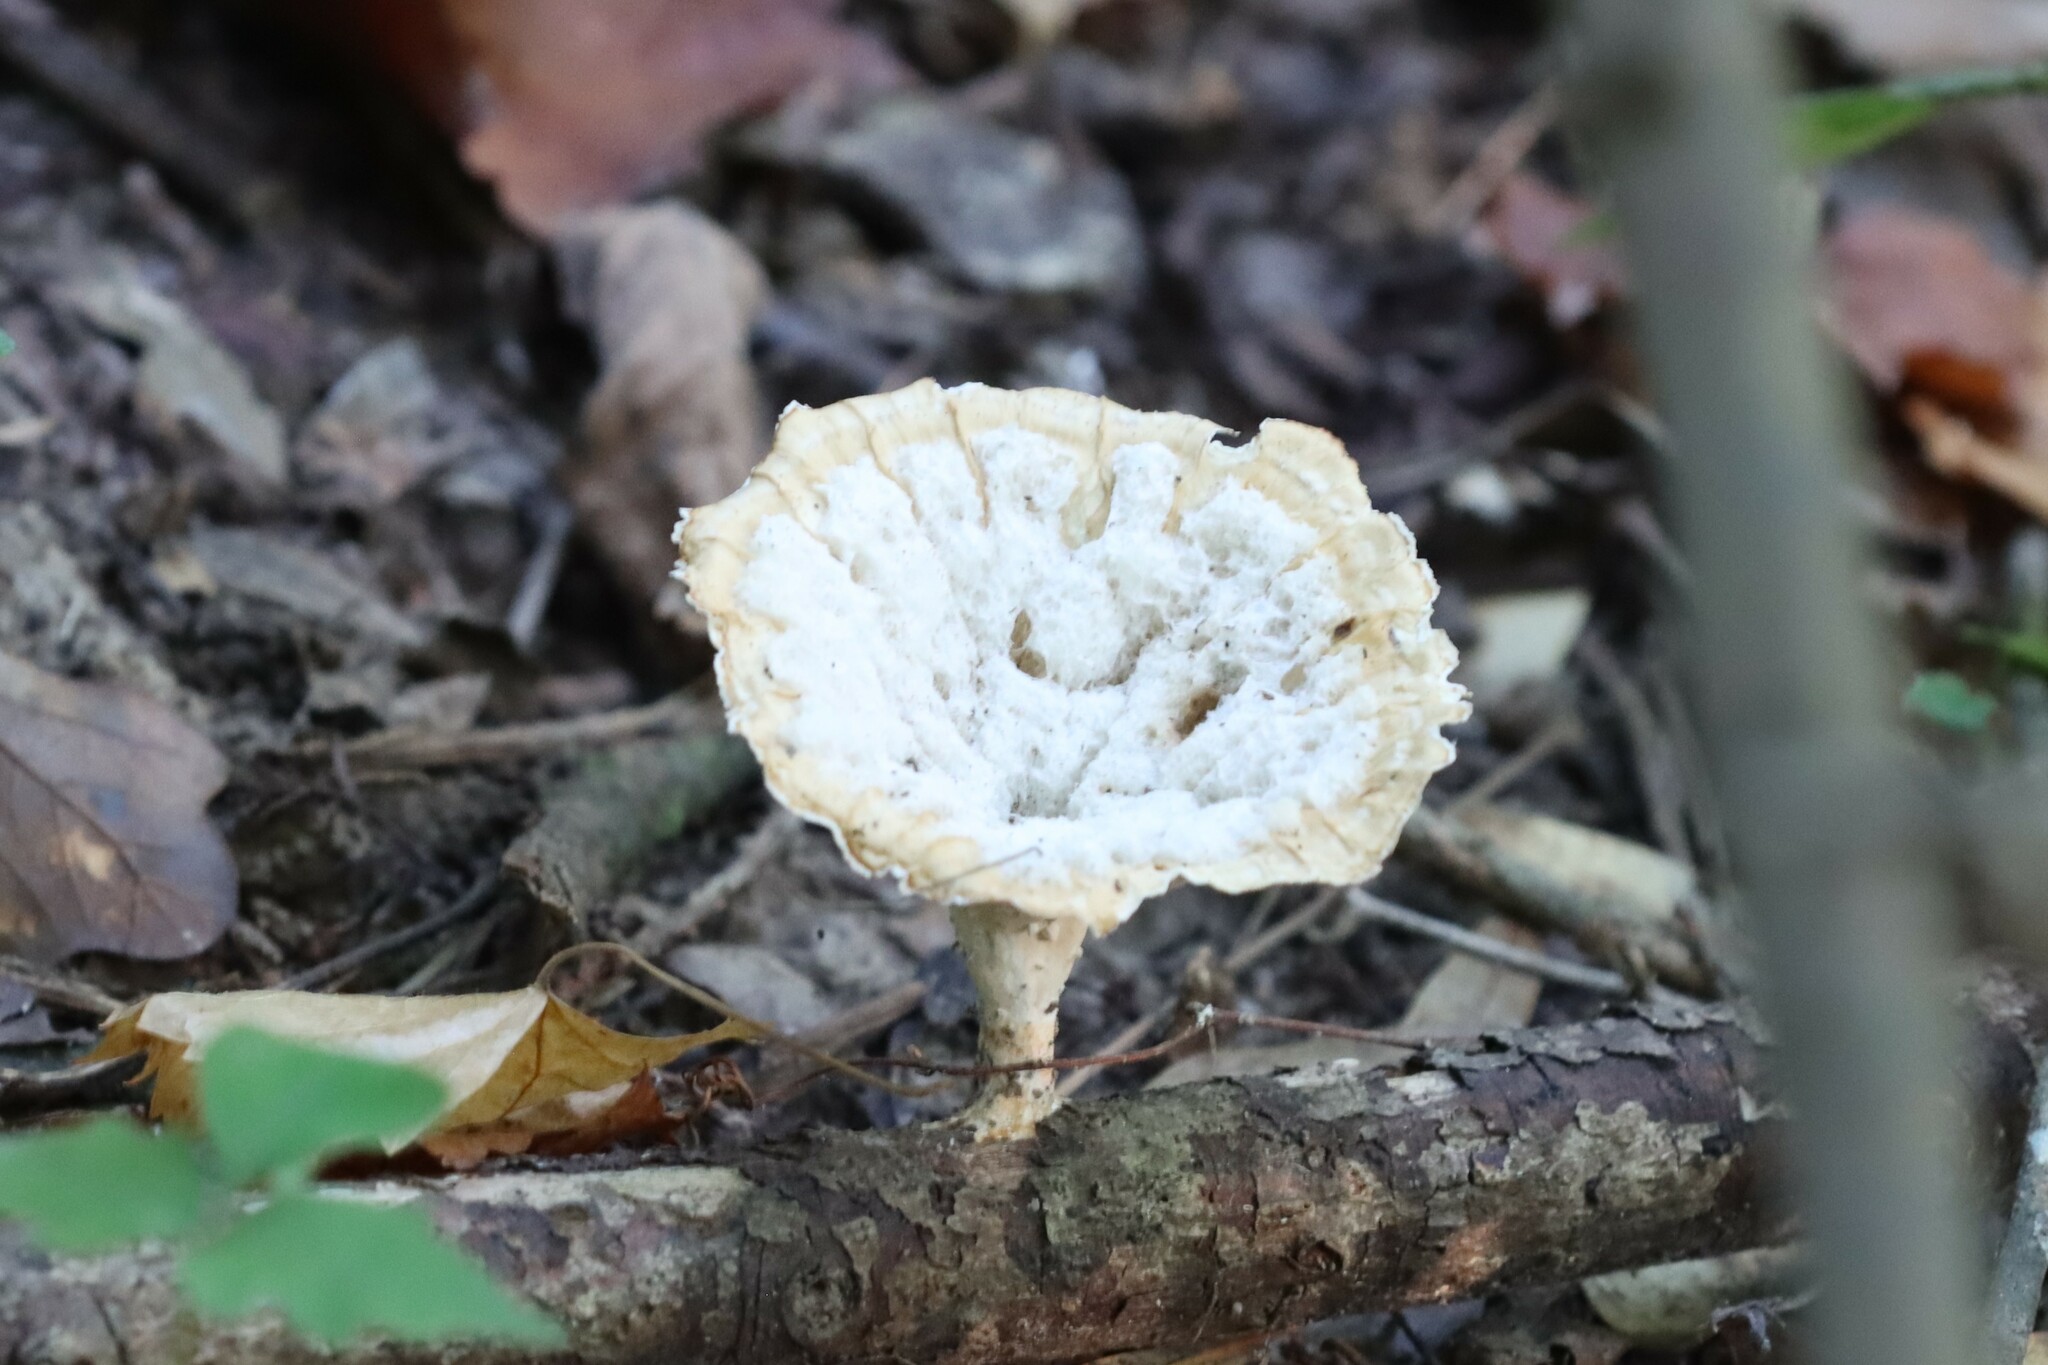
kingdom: Fungi
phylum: Basidiomycota
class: Agaricomycetes
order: Polyporales
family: Panaceae
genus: Cymatoderma
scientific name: Cymatoderma caperatum
